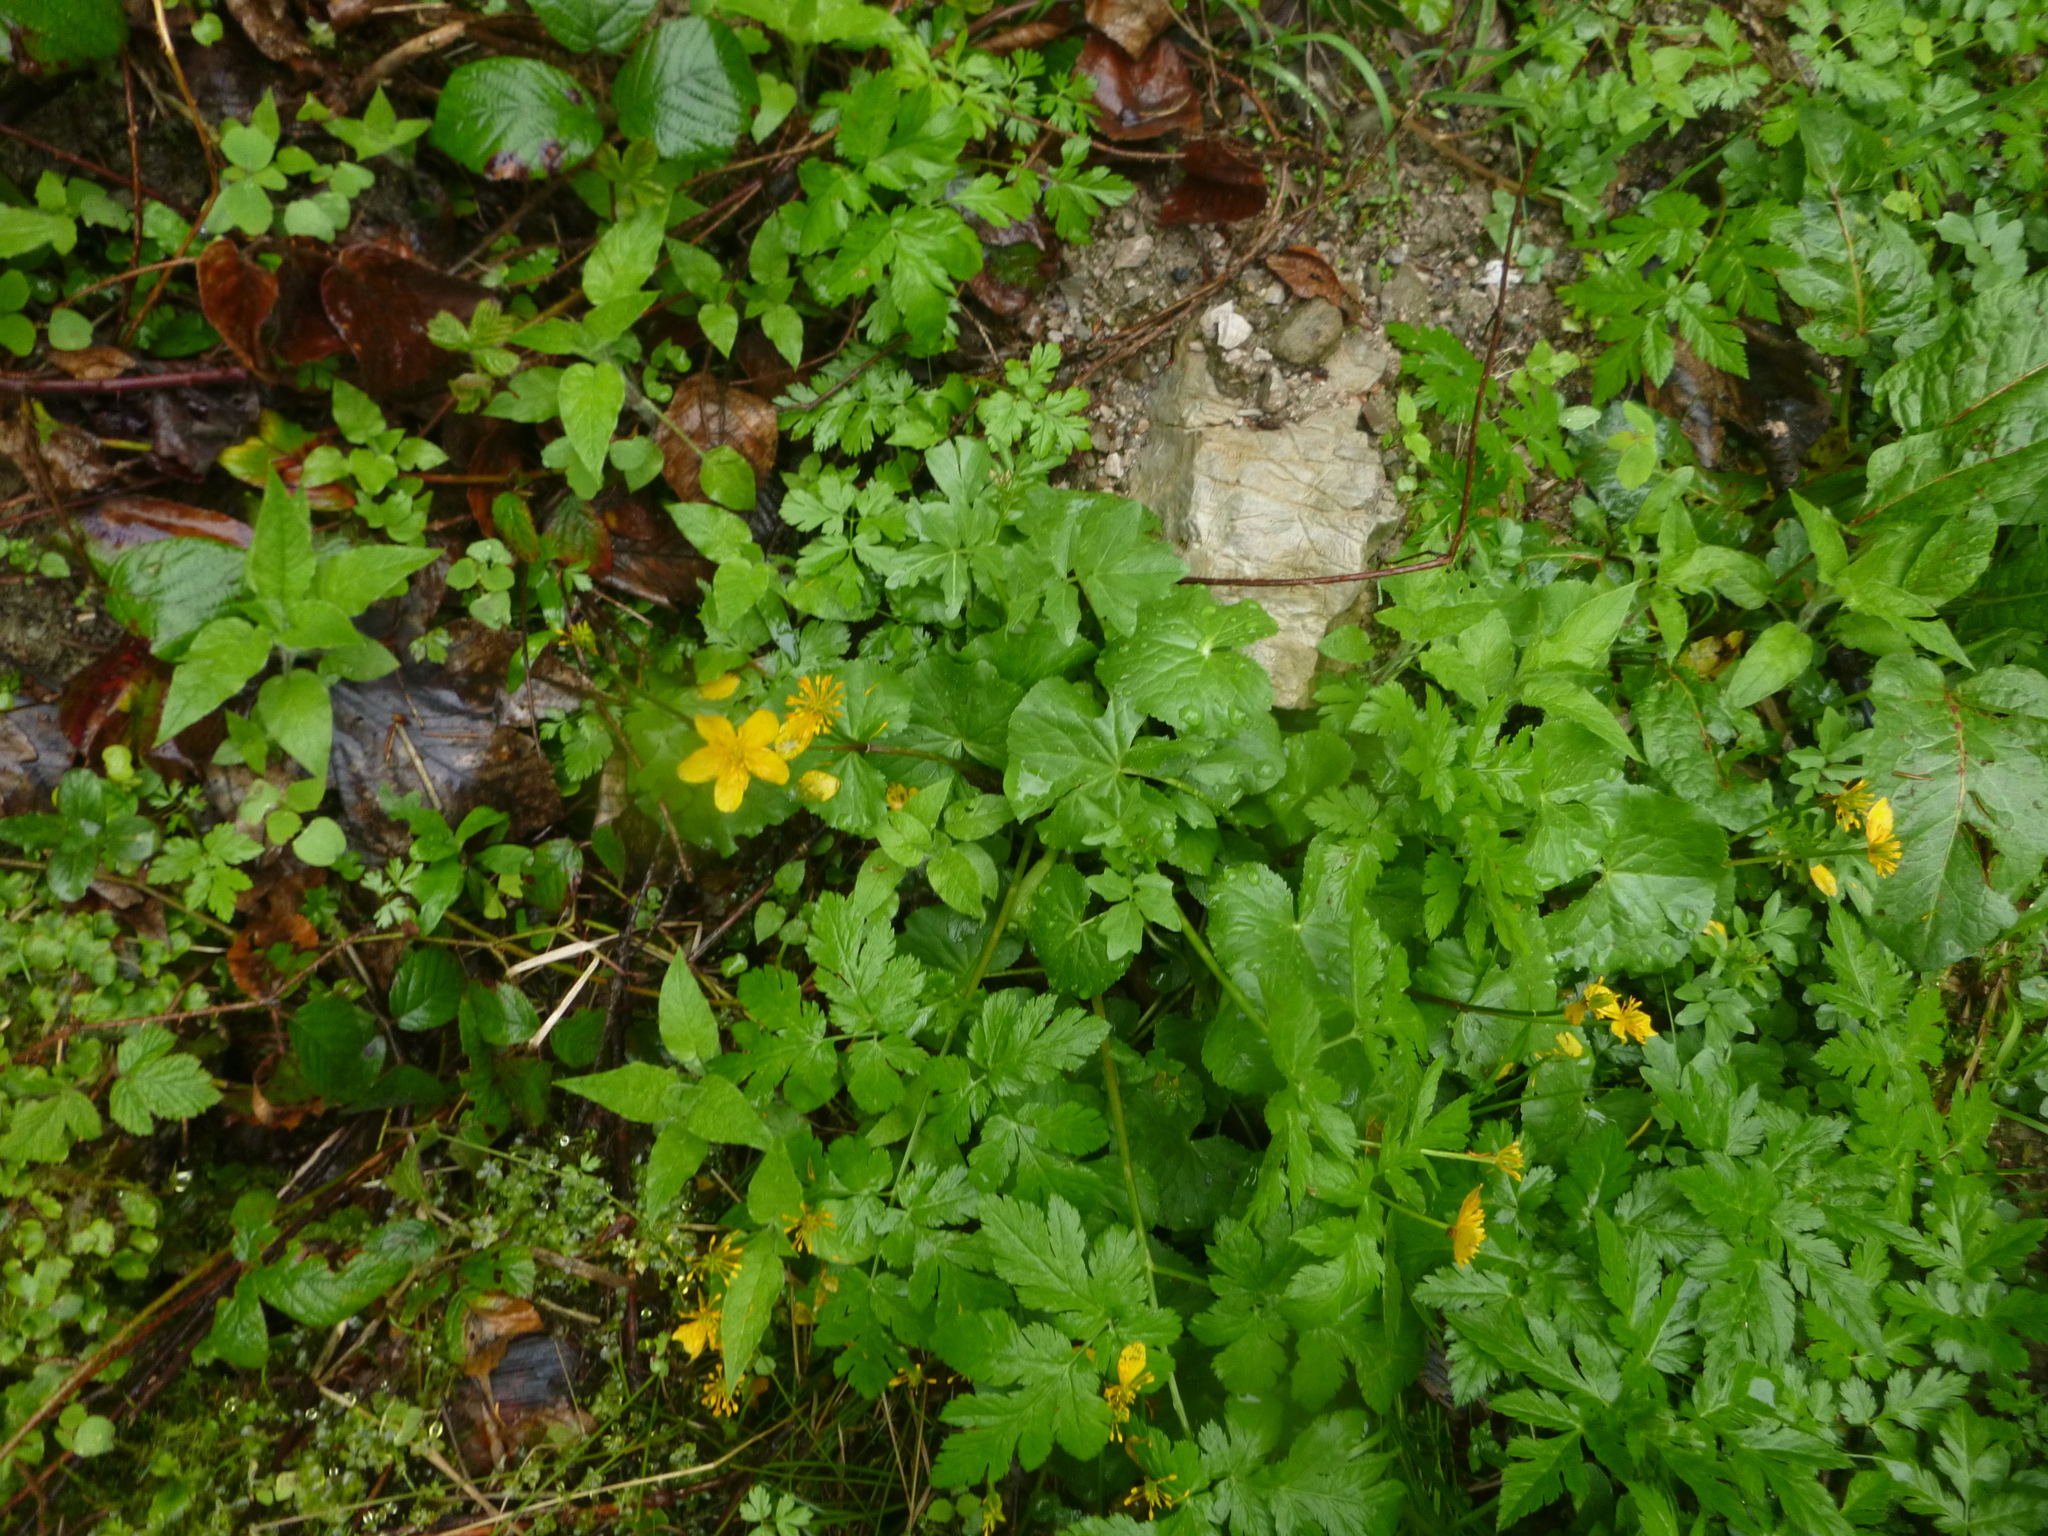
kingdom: Plantae
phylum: Tracheophyta
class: Magnoliopsida
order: Ranunculales
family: Ranunculaceae
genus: Caltha
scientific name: Caltha palustris
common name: Marsh marigold
